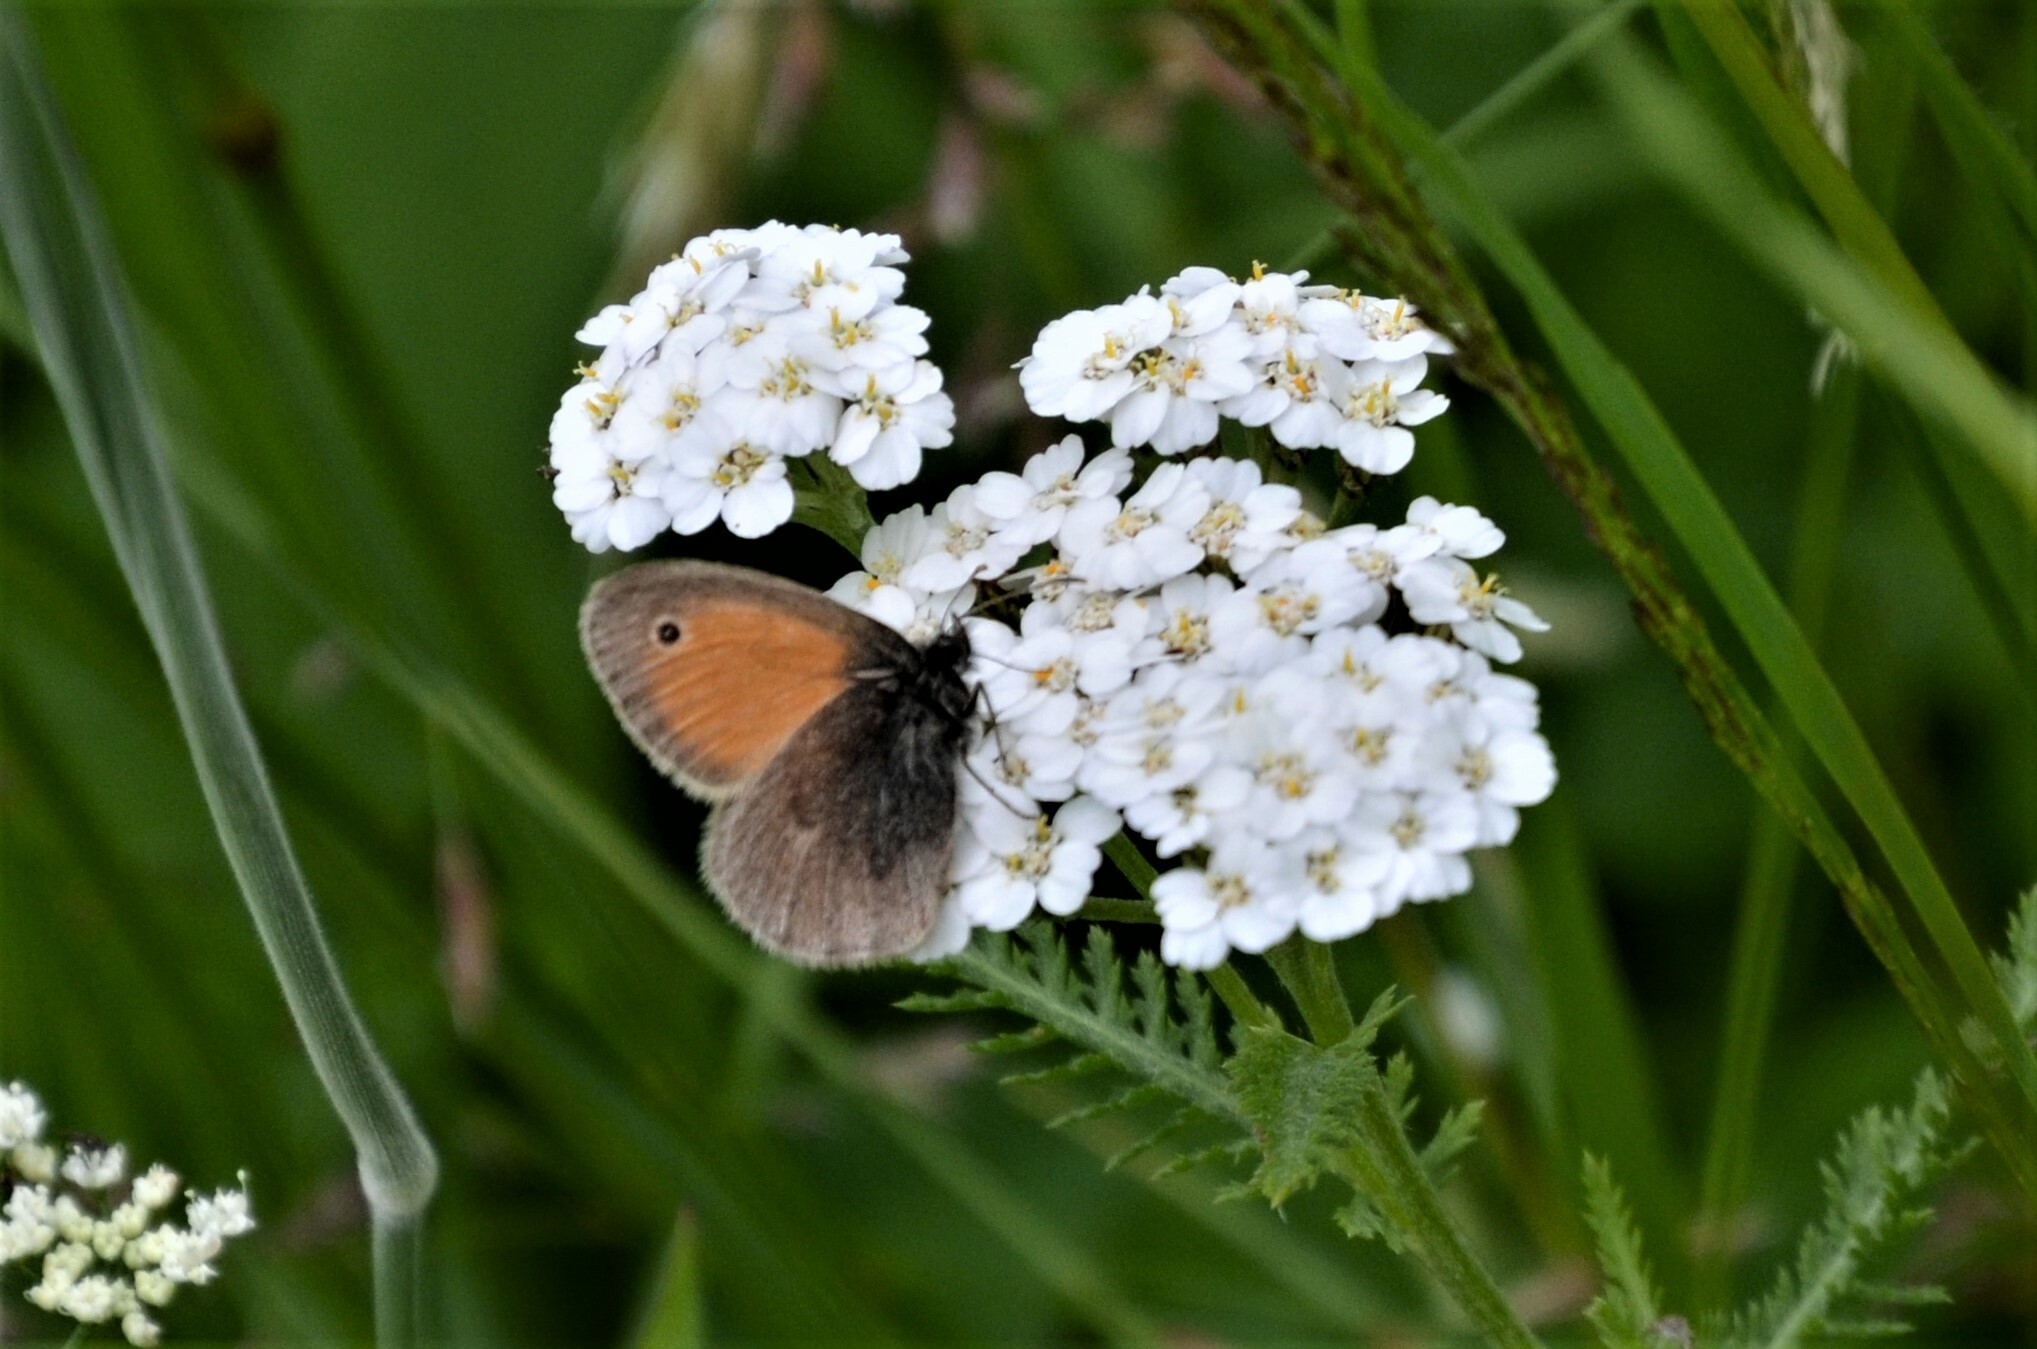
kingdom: Animalia
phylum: Arthropoda
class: Insecta
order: Lepidoptera
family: Nymphalidae
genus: Coenonympha
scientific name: Coenonympha pamphilus
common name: Small heath
